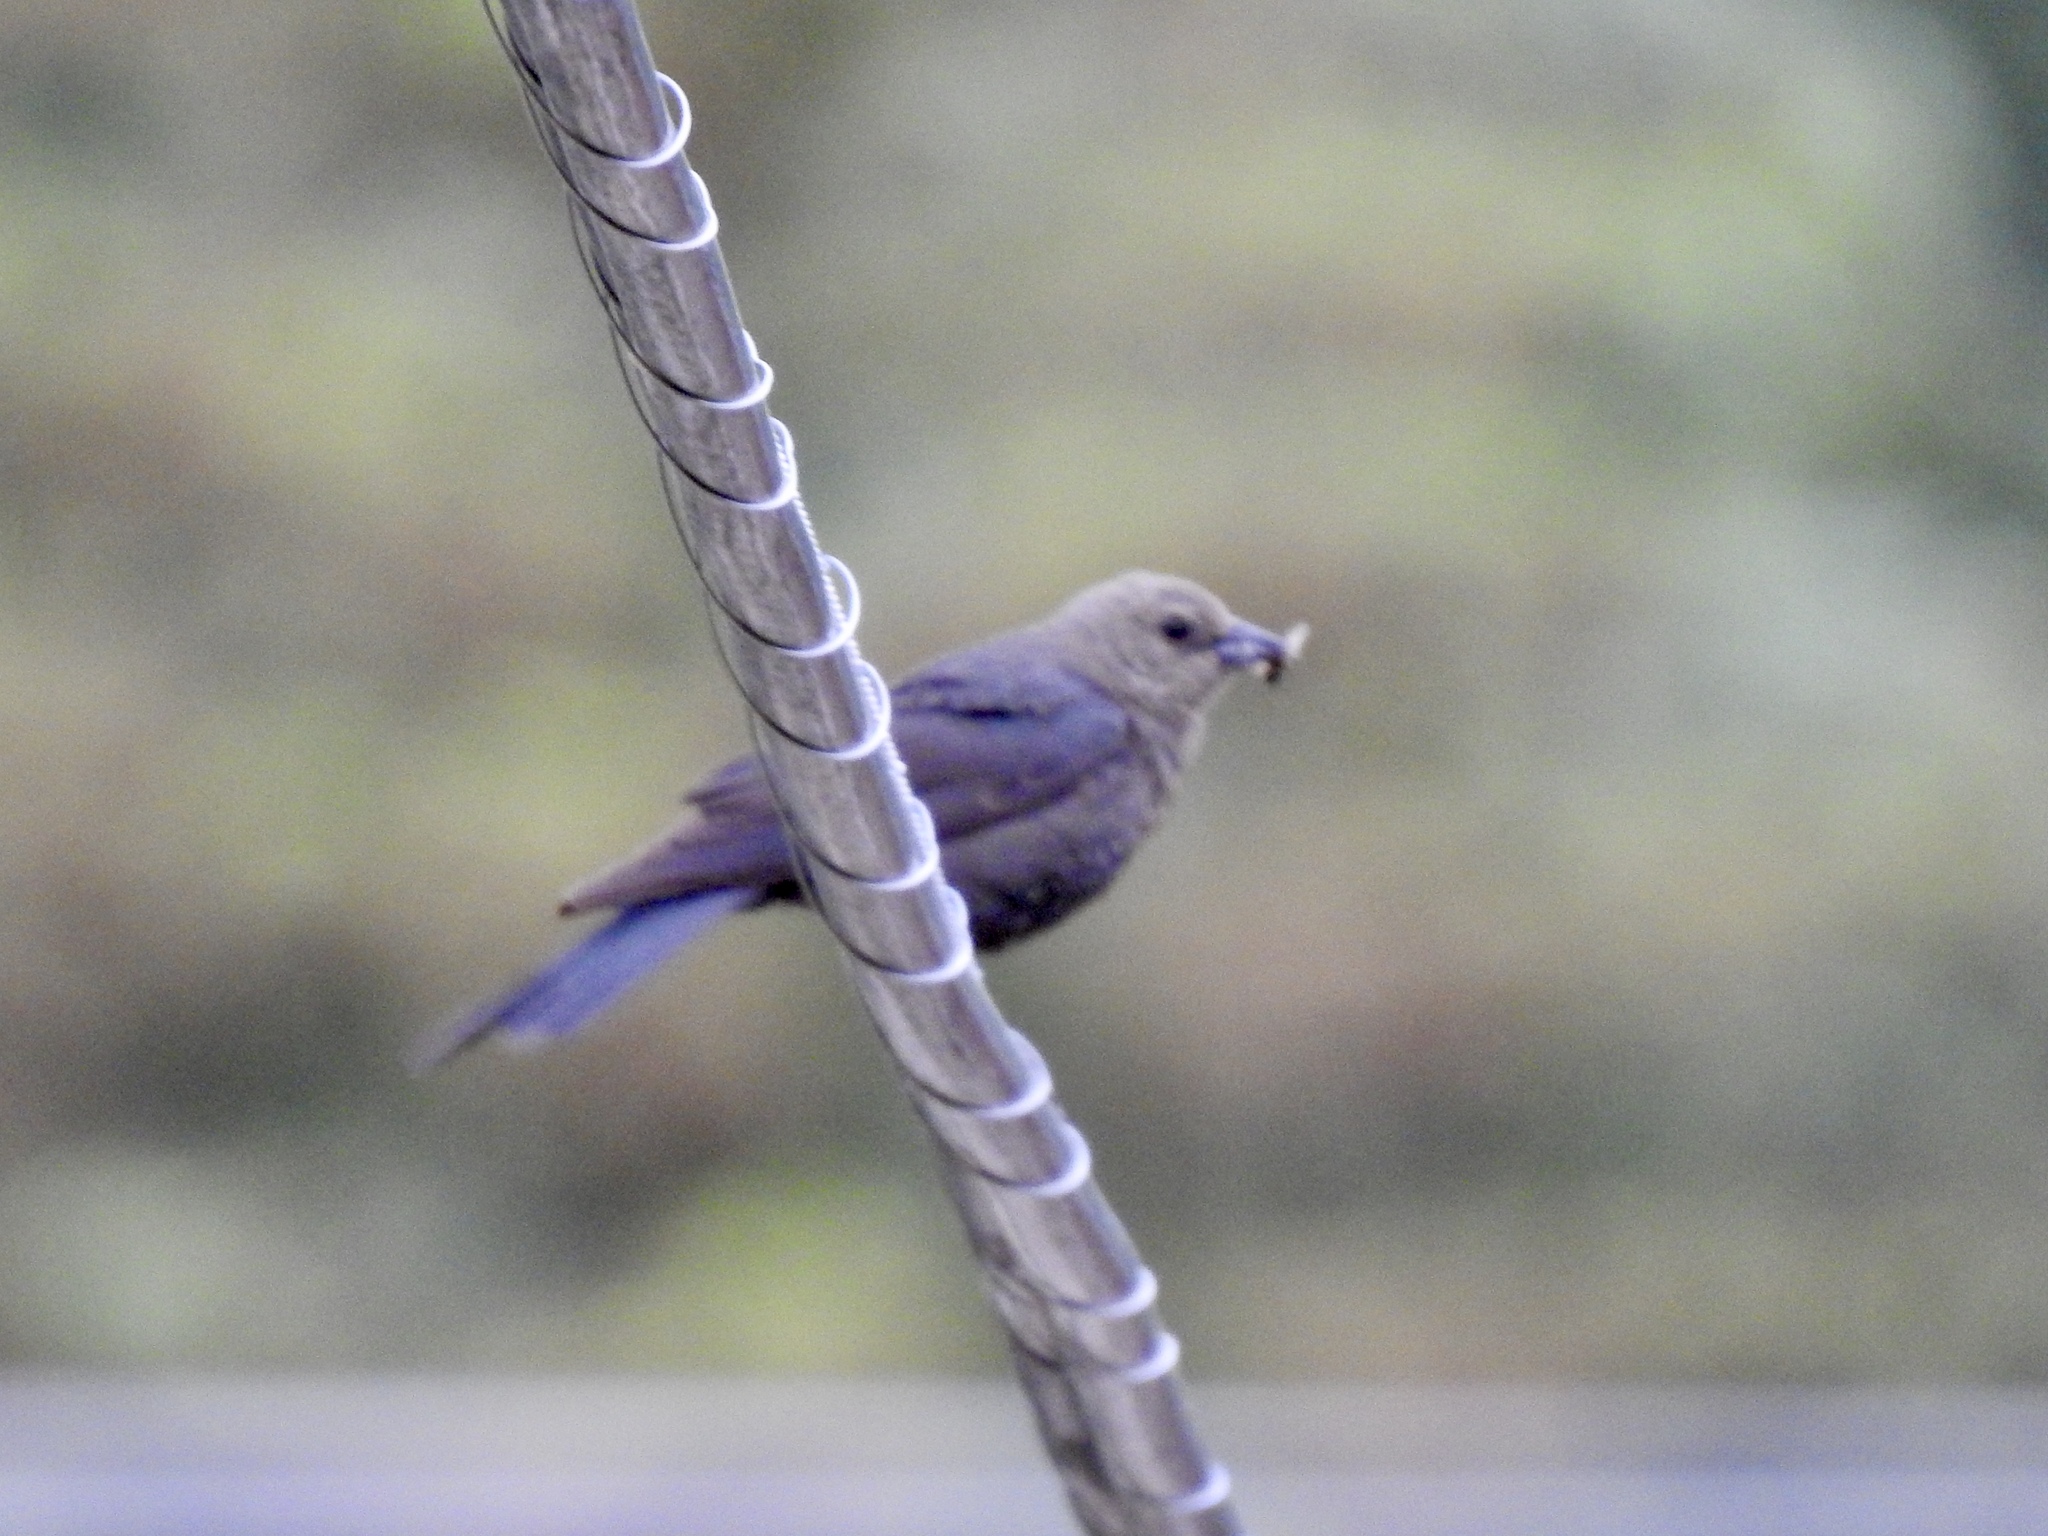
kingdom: Animalia
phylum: Chordata
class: Aves
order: Passeriformes
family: Icteridae
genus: Molothrus
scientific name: Molothrus ater
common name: Brown-headed cowbird
